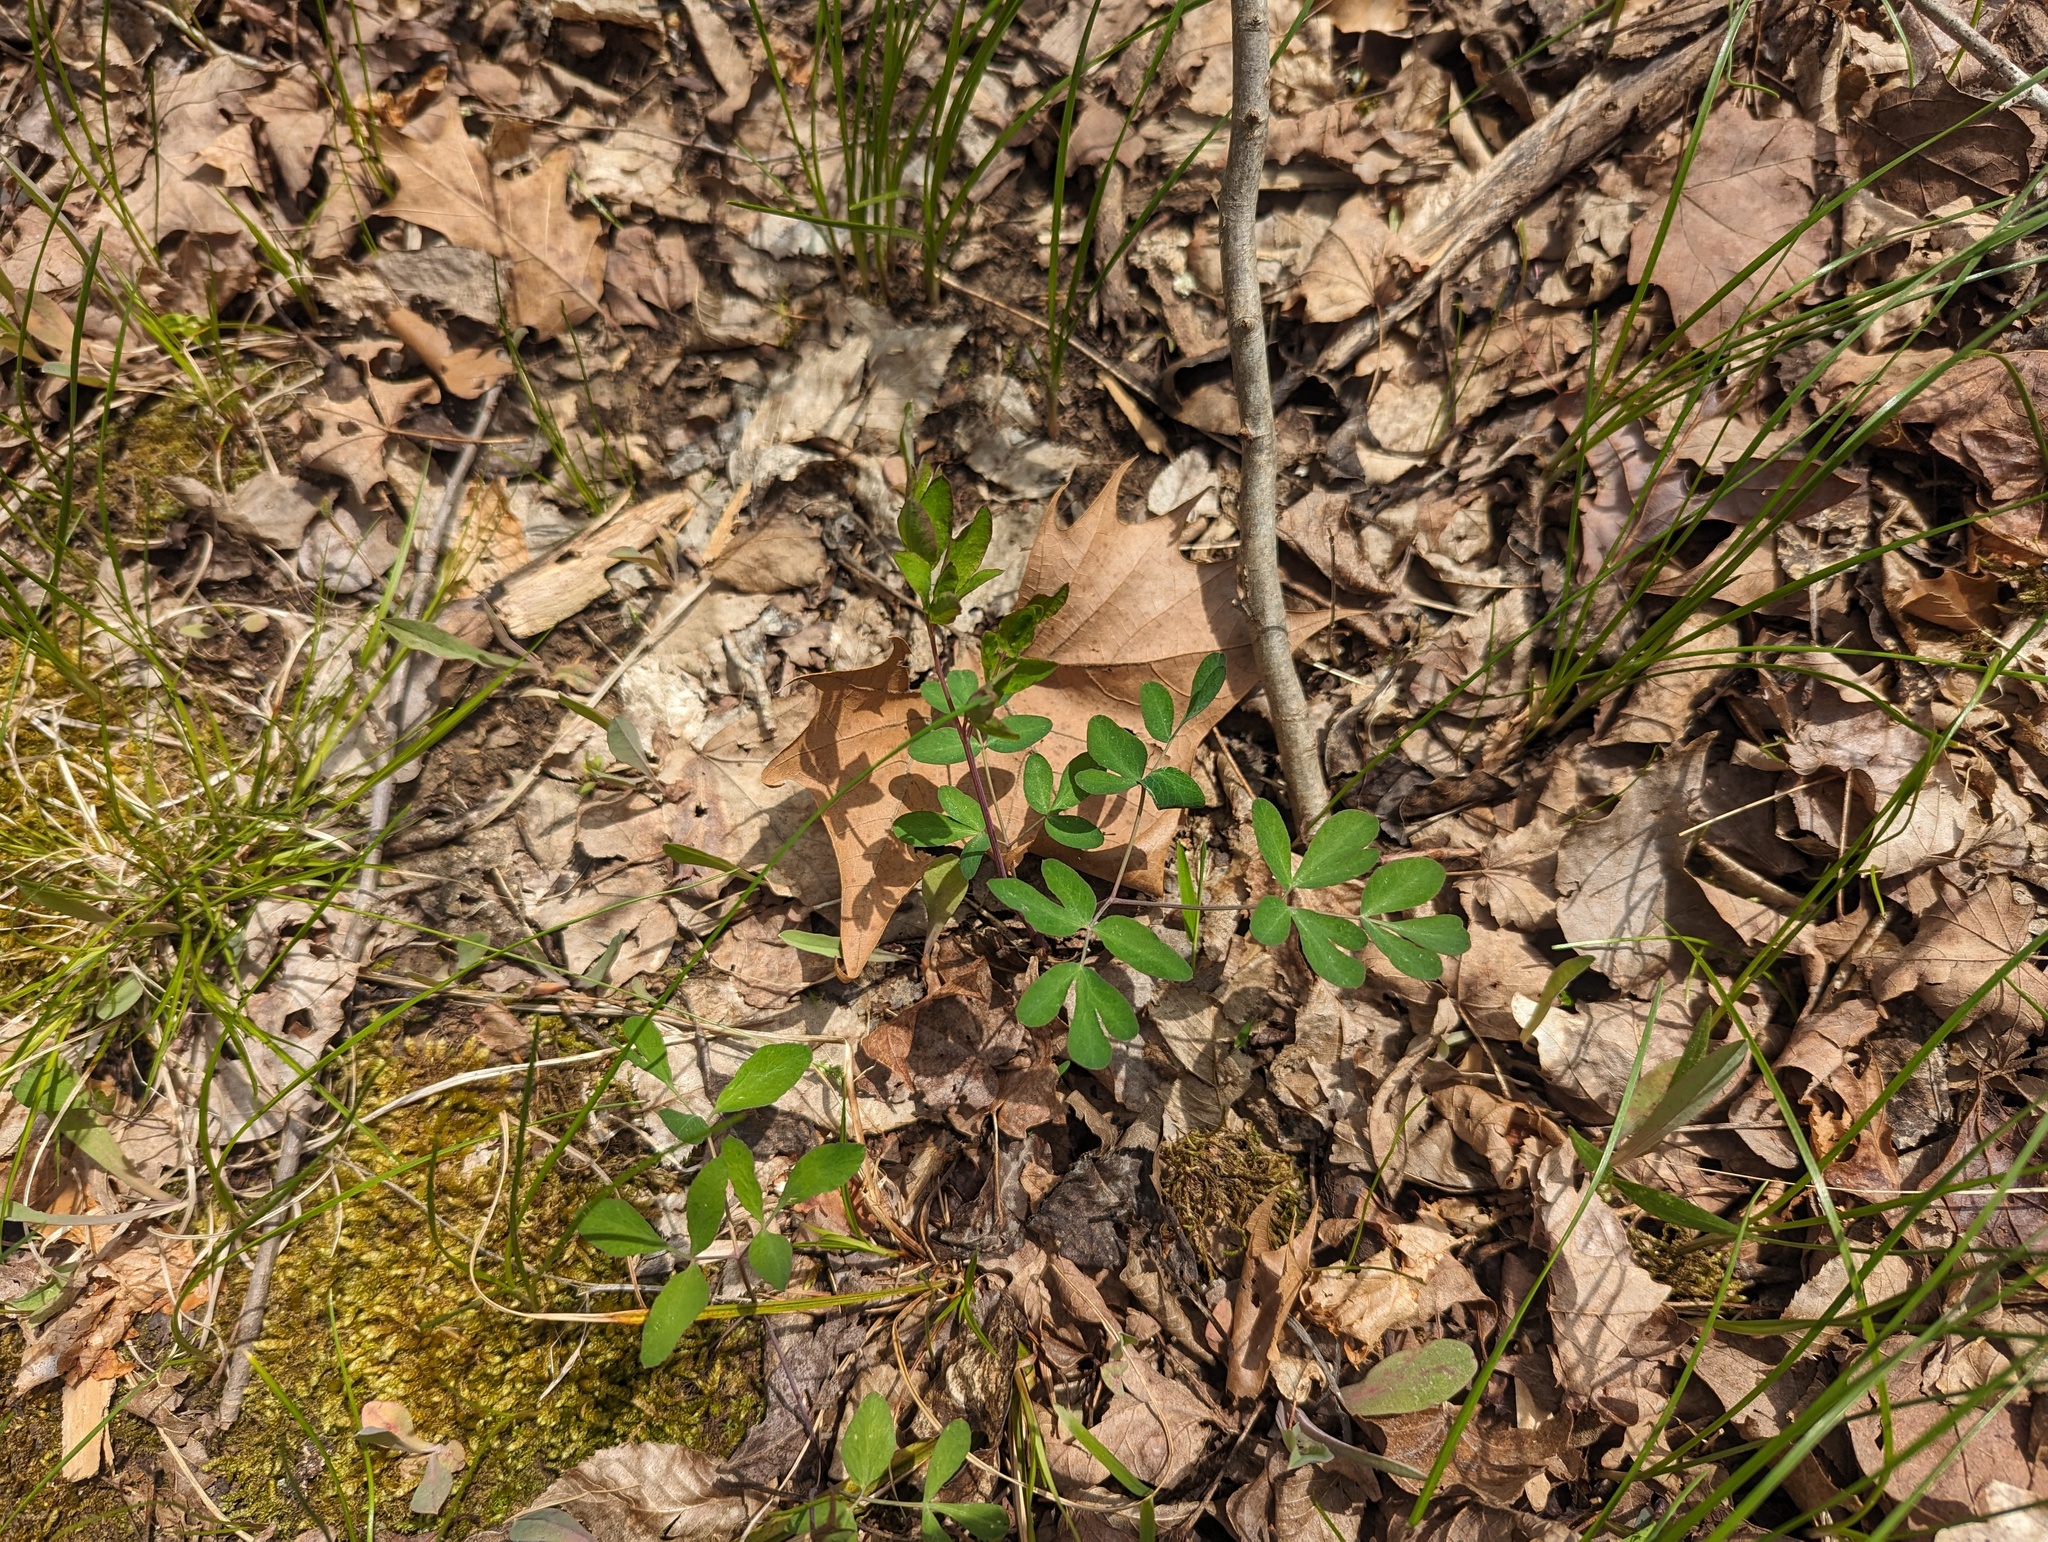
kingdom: Plantae
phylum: Tracheophyta
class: Magnoliopsida
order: Apiales
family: Apiaceae
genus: Taenidia
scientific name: Taenidia integerrima
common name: Golden alexander
